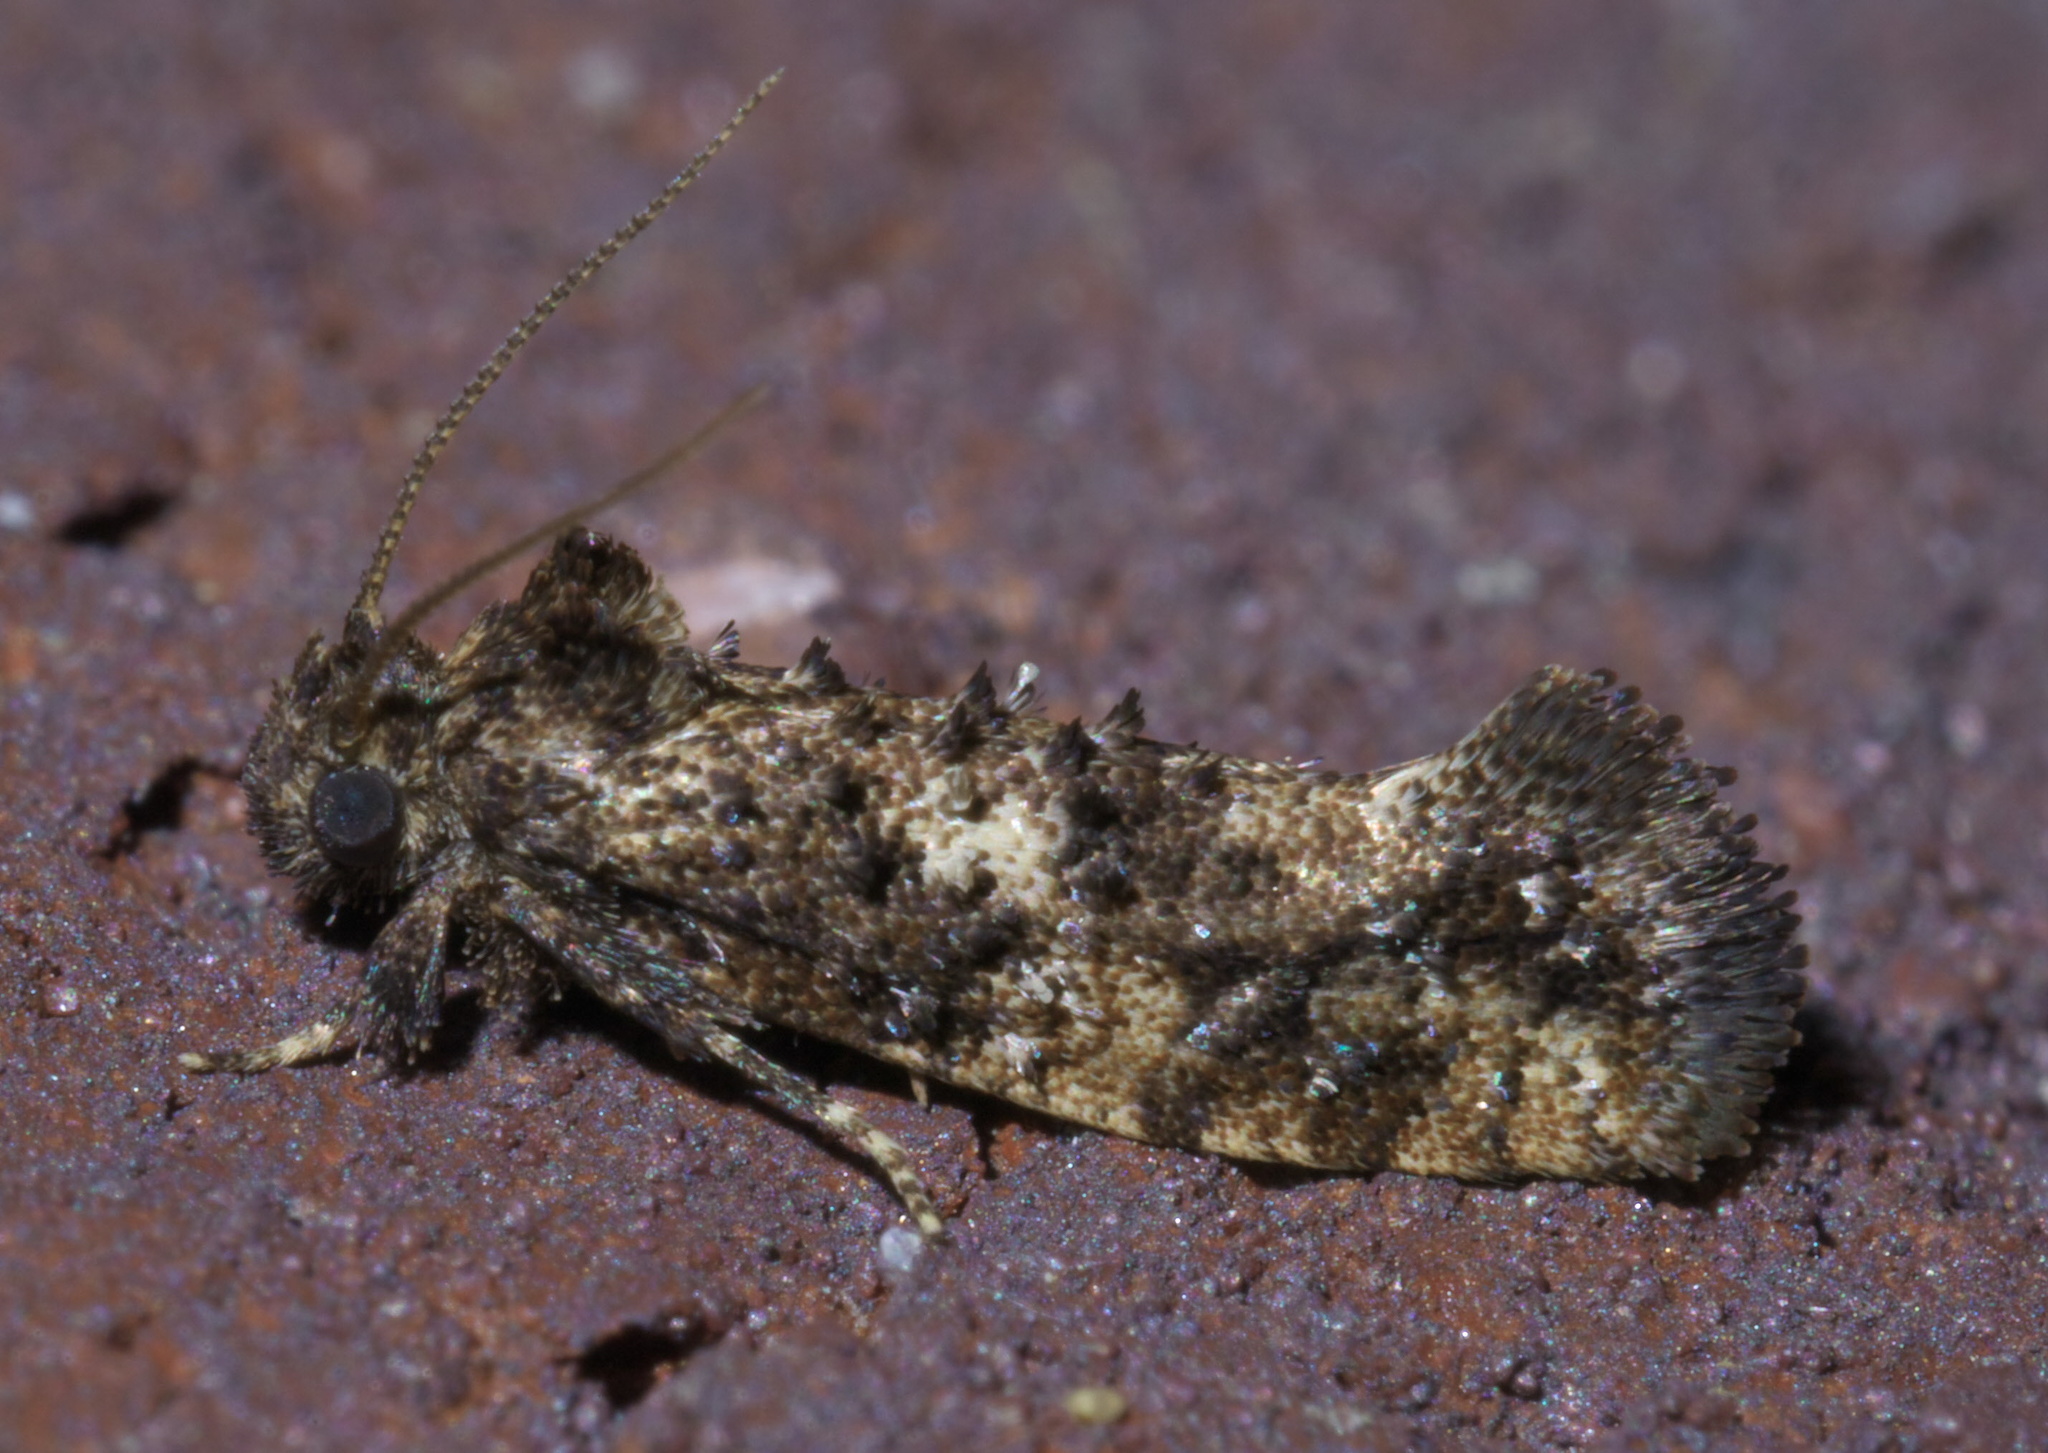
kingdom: Animalia
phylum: Arthropoda
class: Insecta
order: Lepidoptera
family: Tineidae
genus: Acrolophus
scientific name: Acrolophus cressoni
